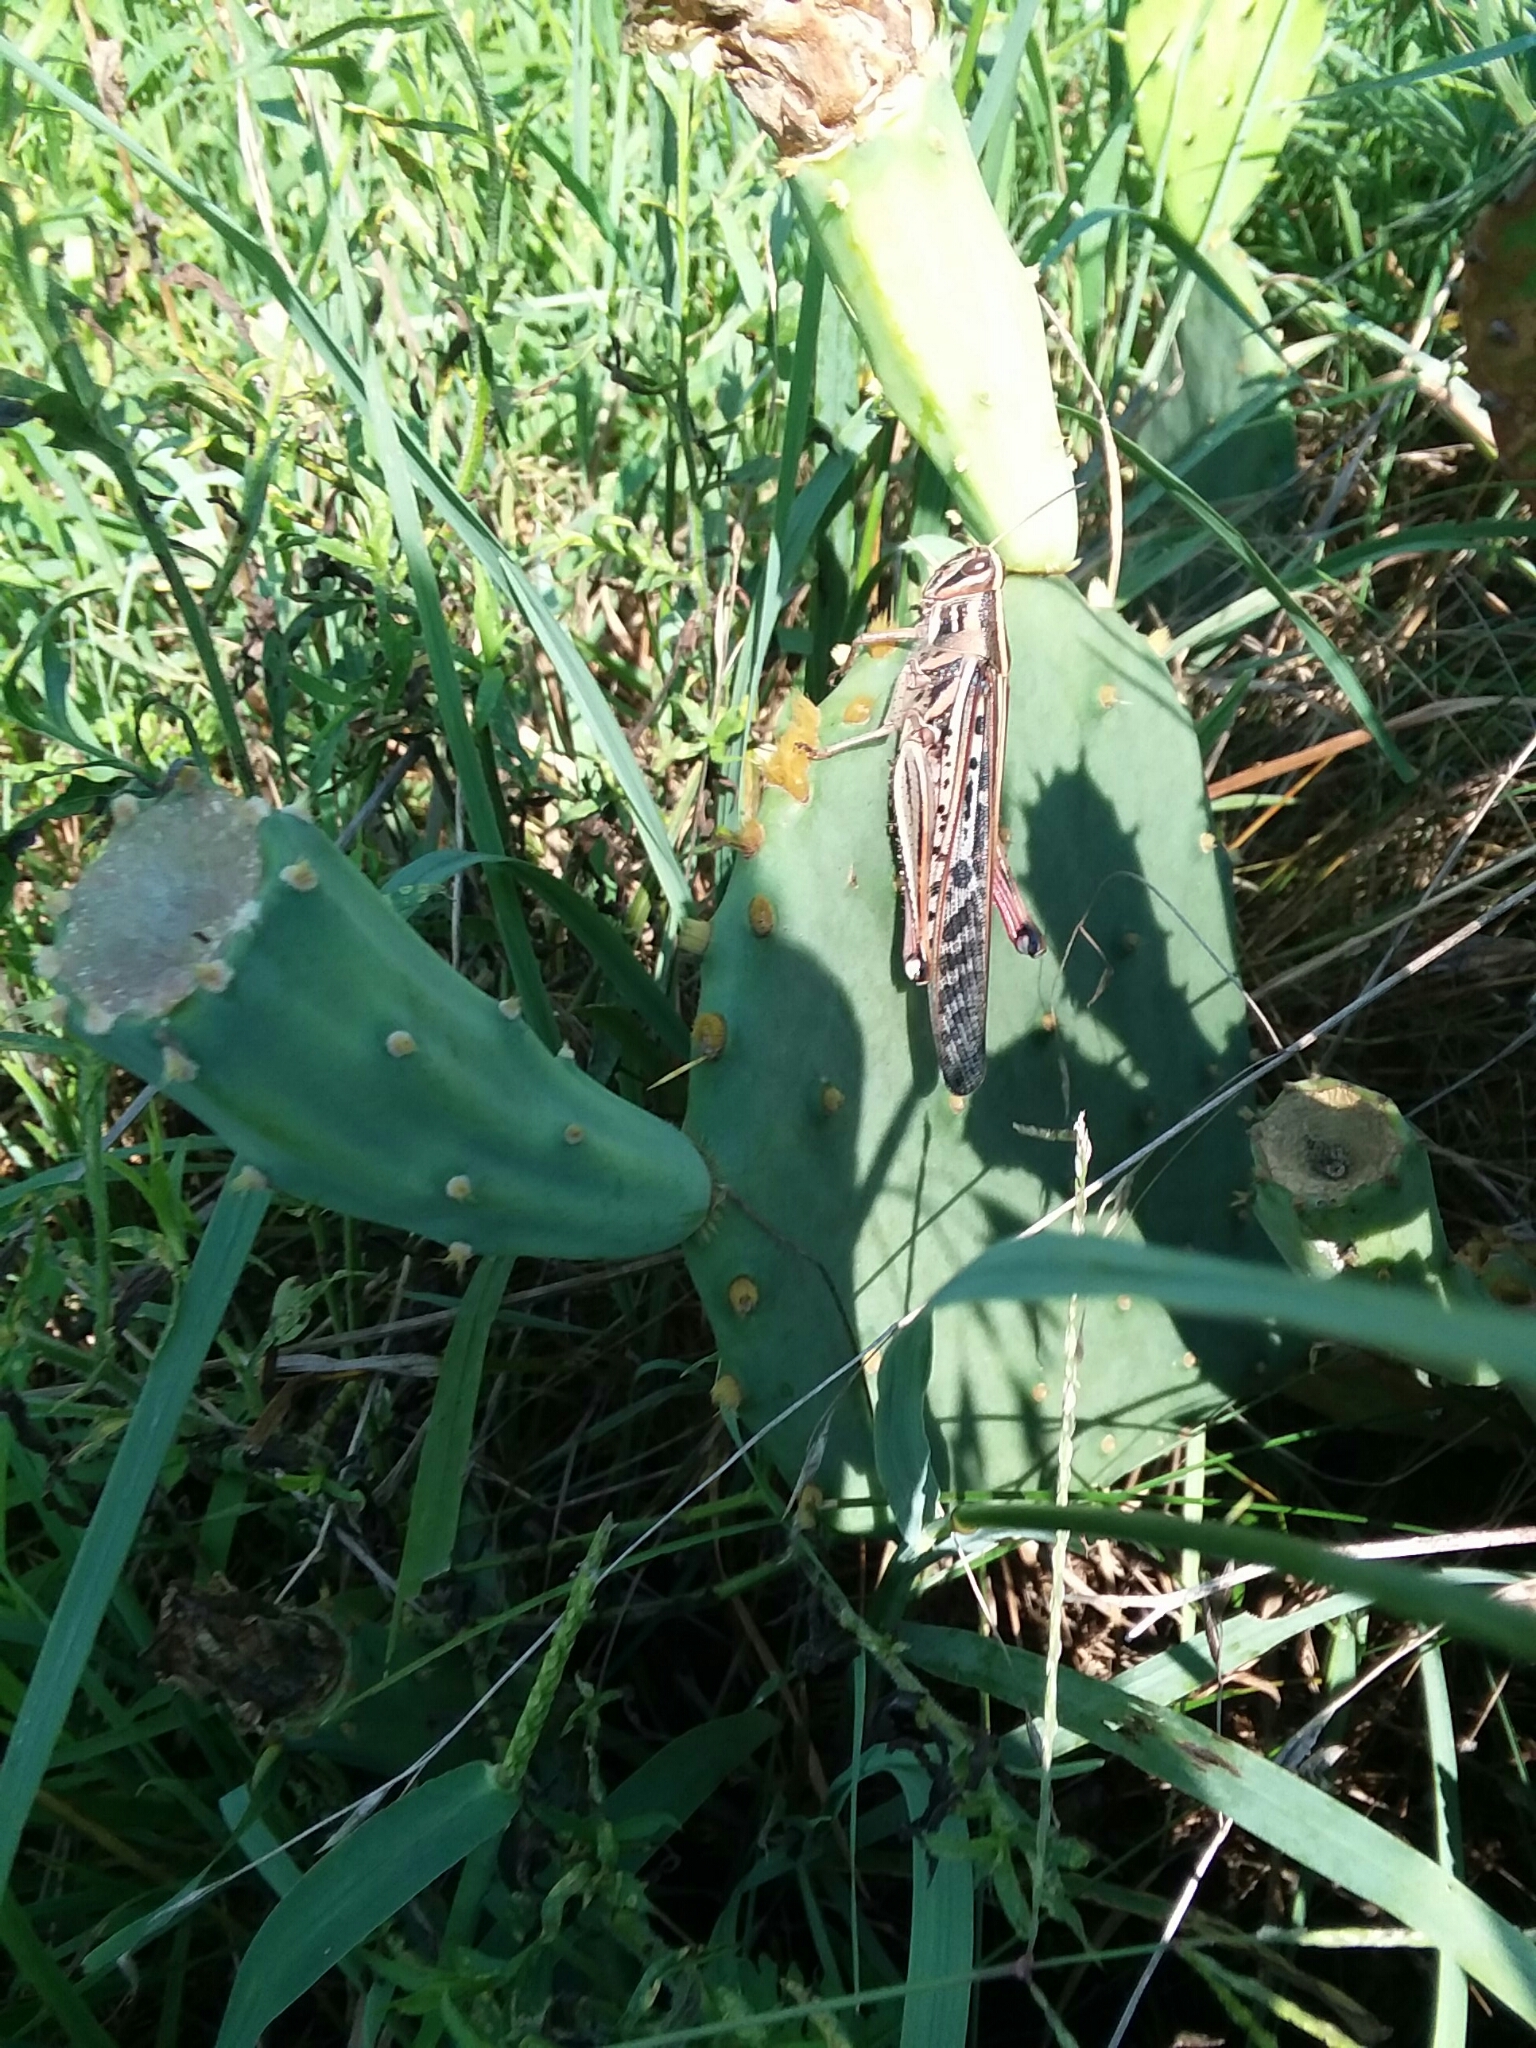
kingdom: Animalia
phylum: Arthropoda
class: Insecta
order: Orthoptera
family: Acrididae
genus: Schistocerca
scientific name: Schistocerca americana
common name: American bird locust
